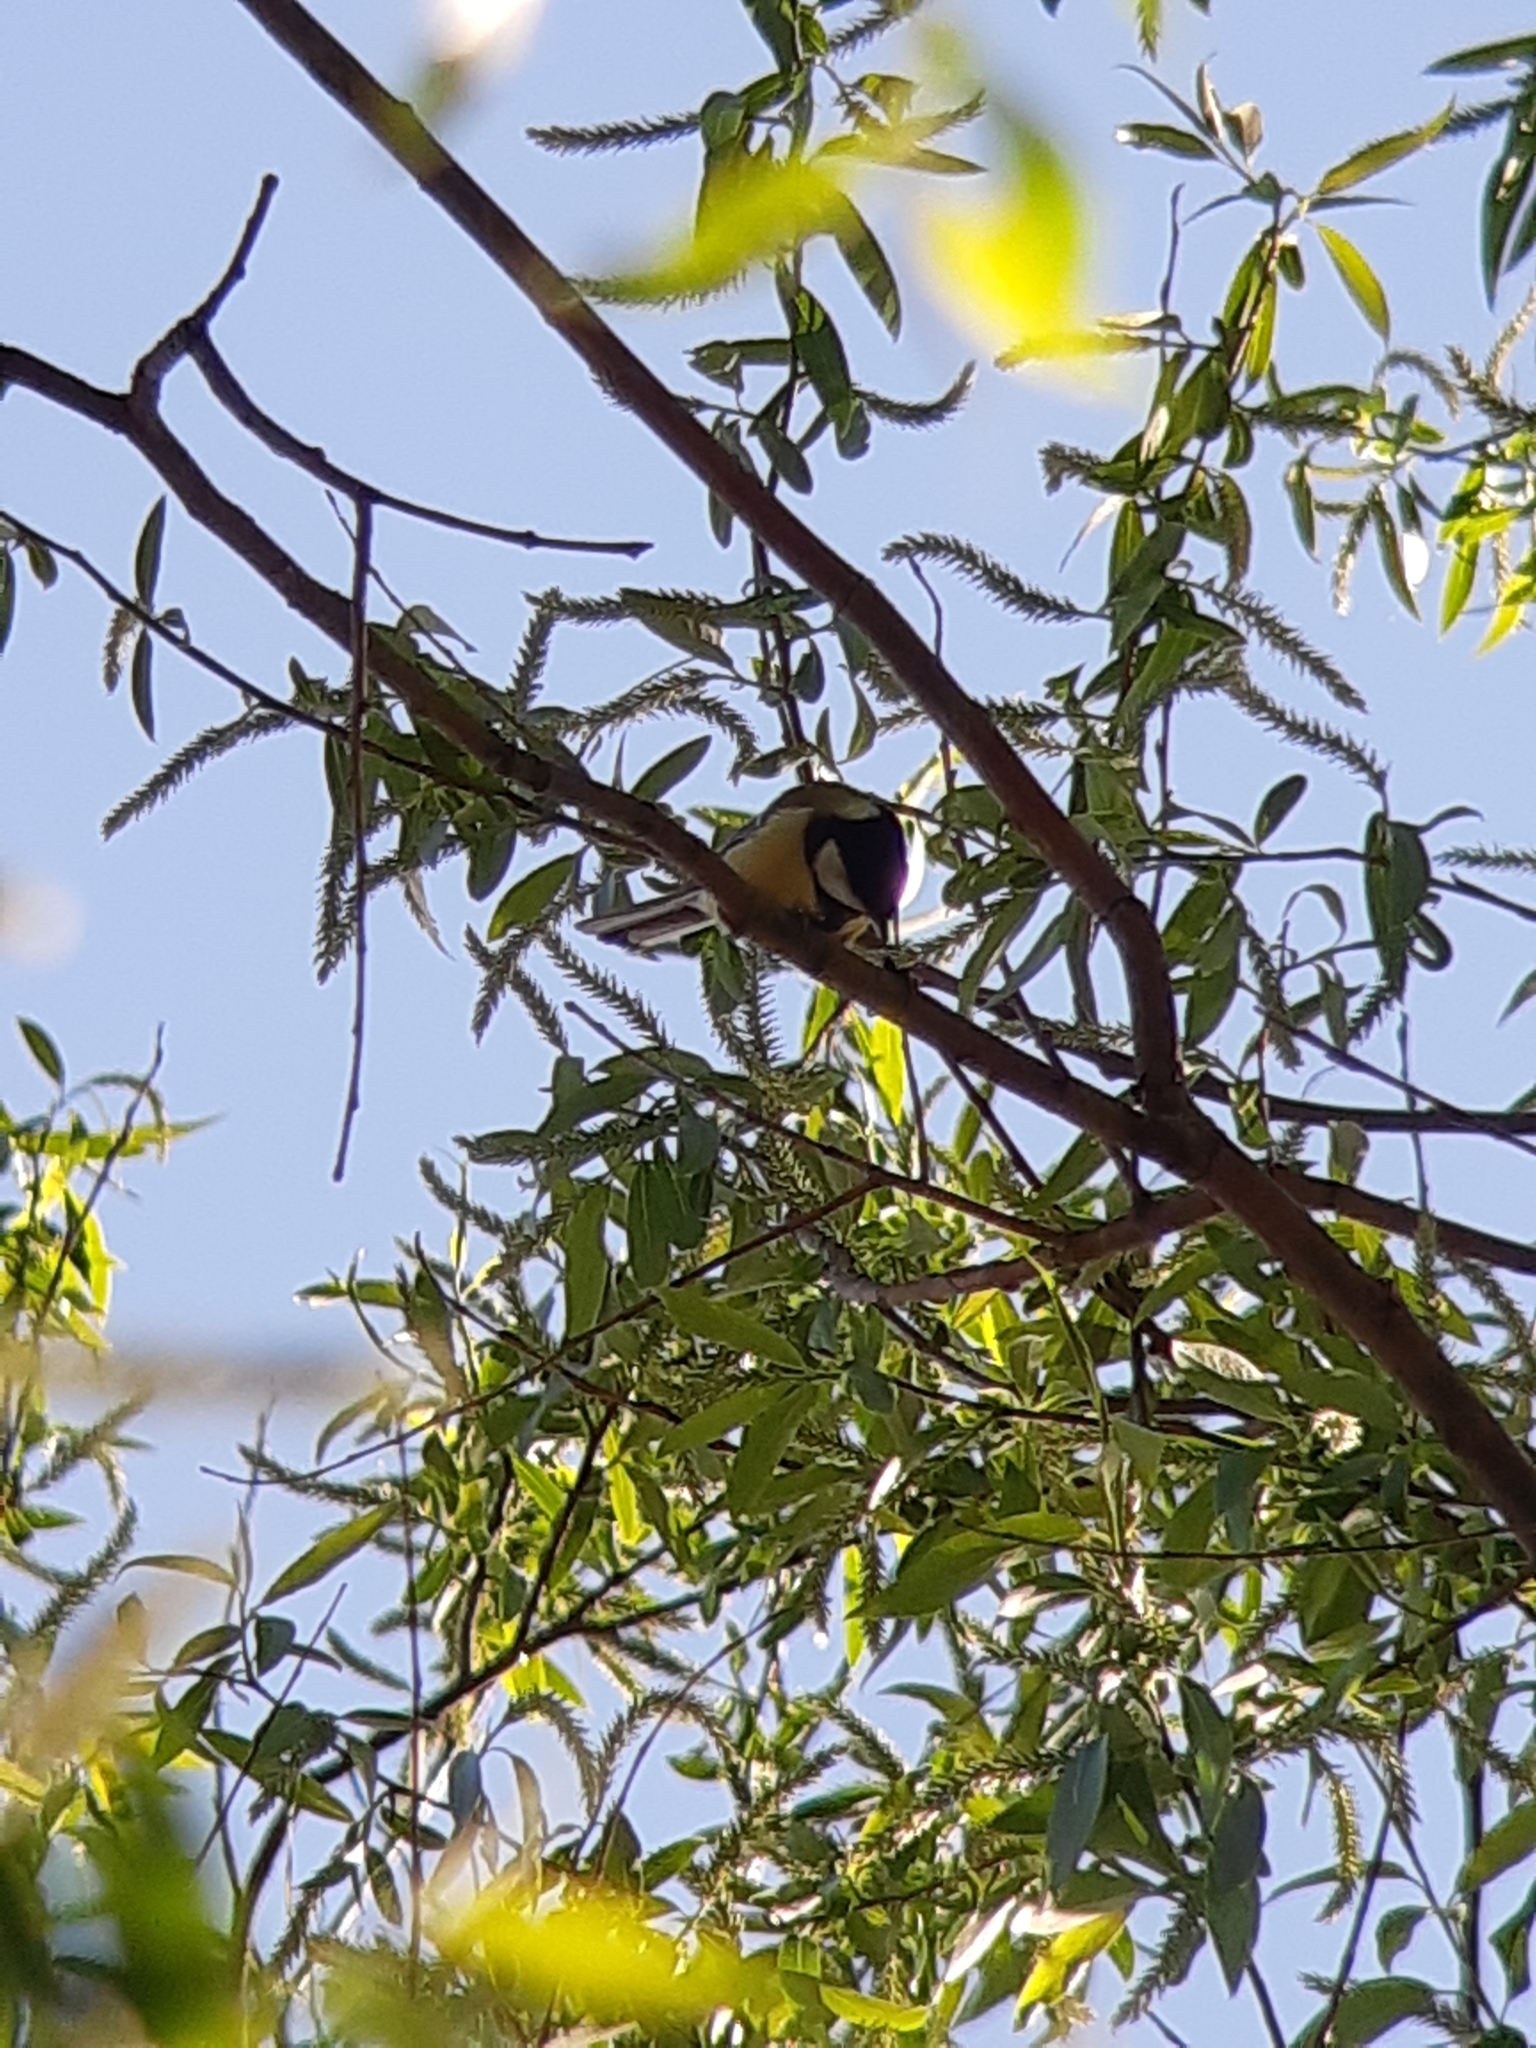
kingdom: Animalia
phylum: Chordata
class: Aves
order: Passeriformes
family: Paridae
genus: Parus
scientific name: Parus major
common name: Great tit
